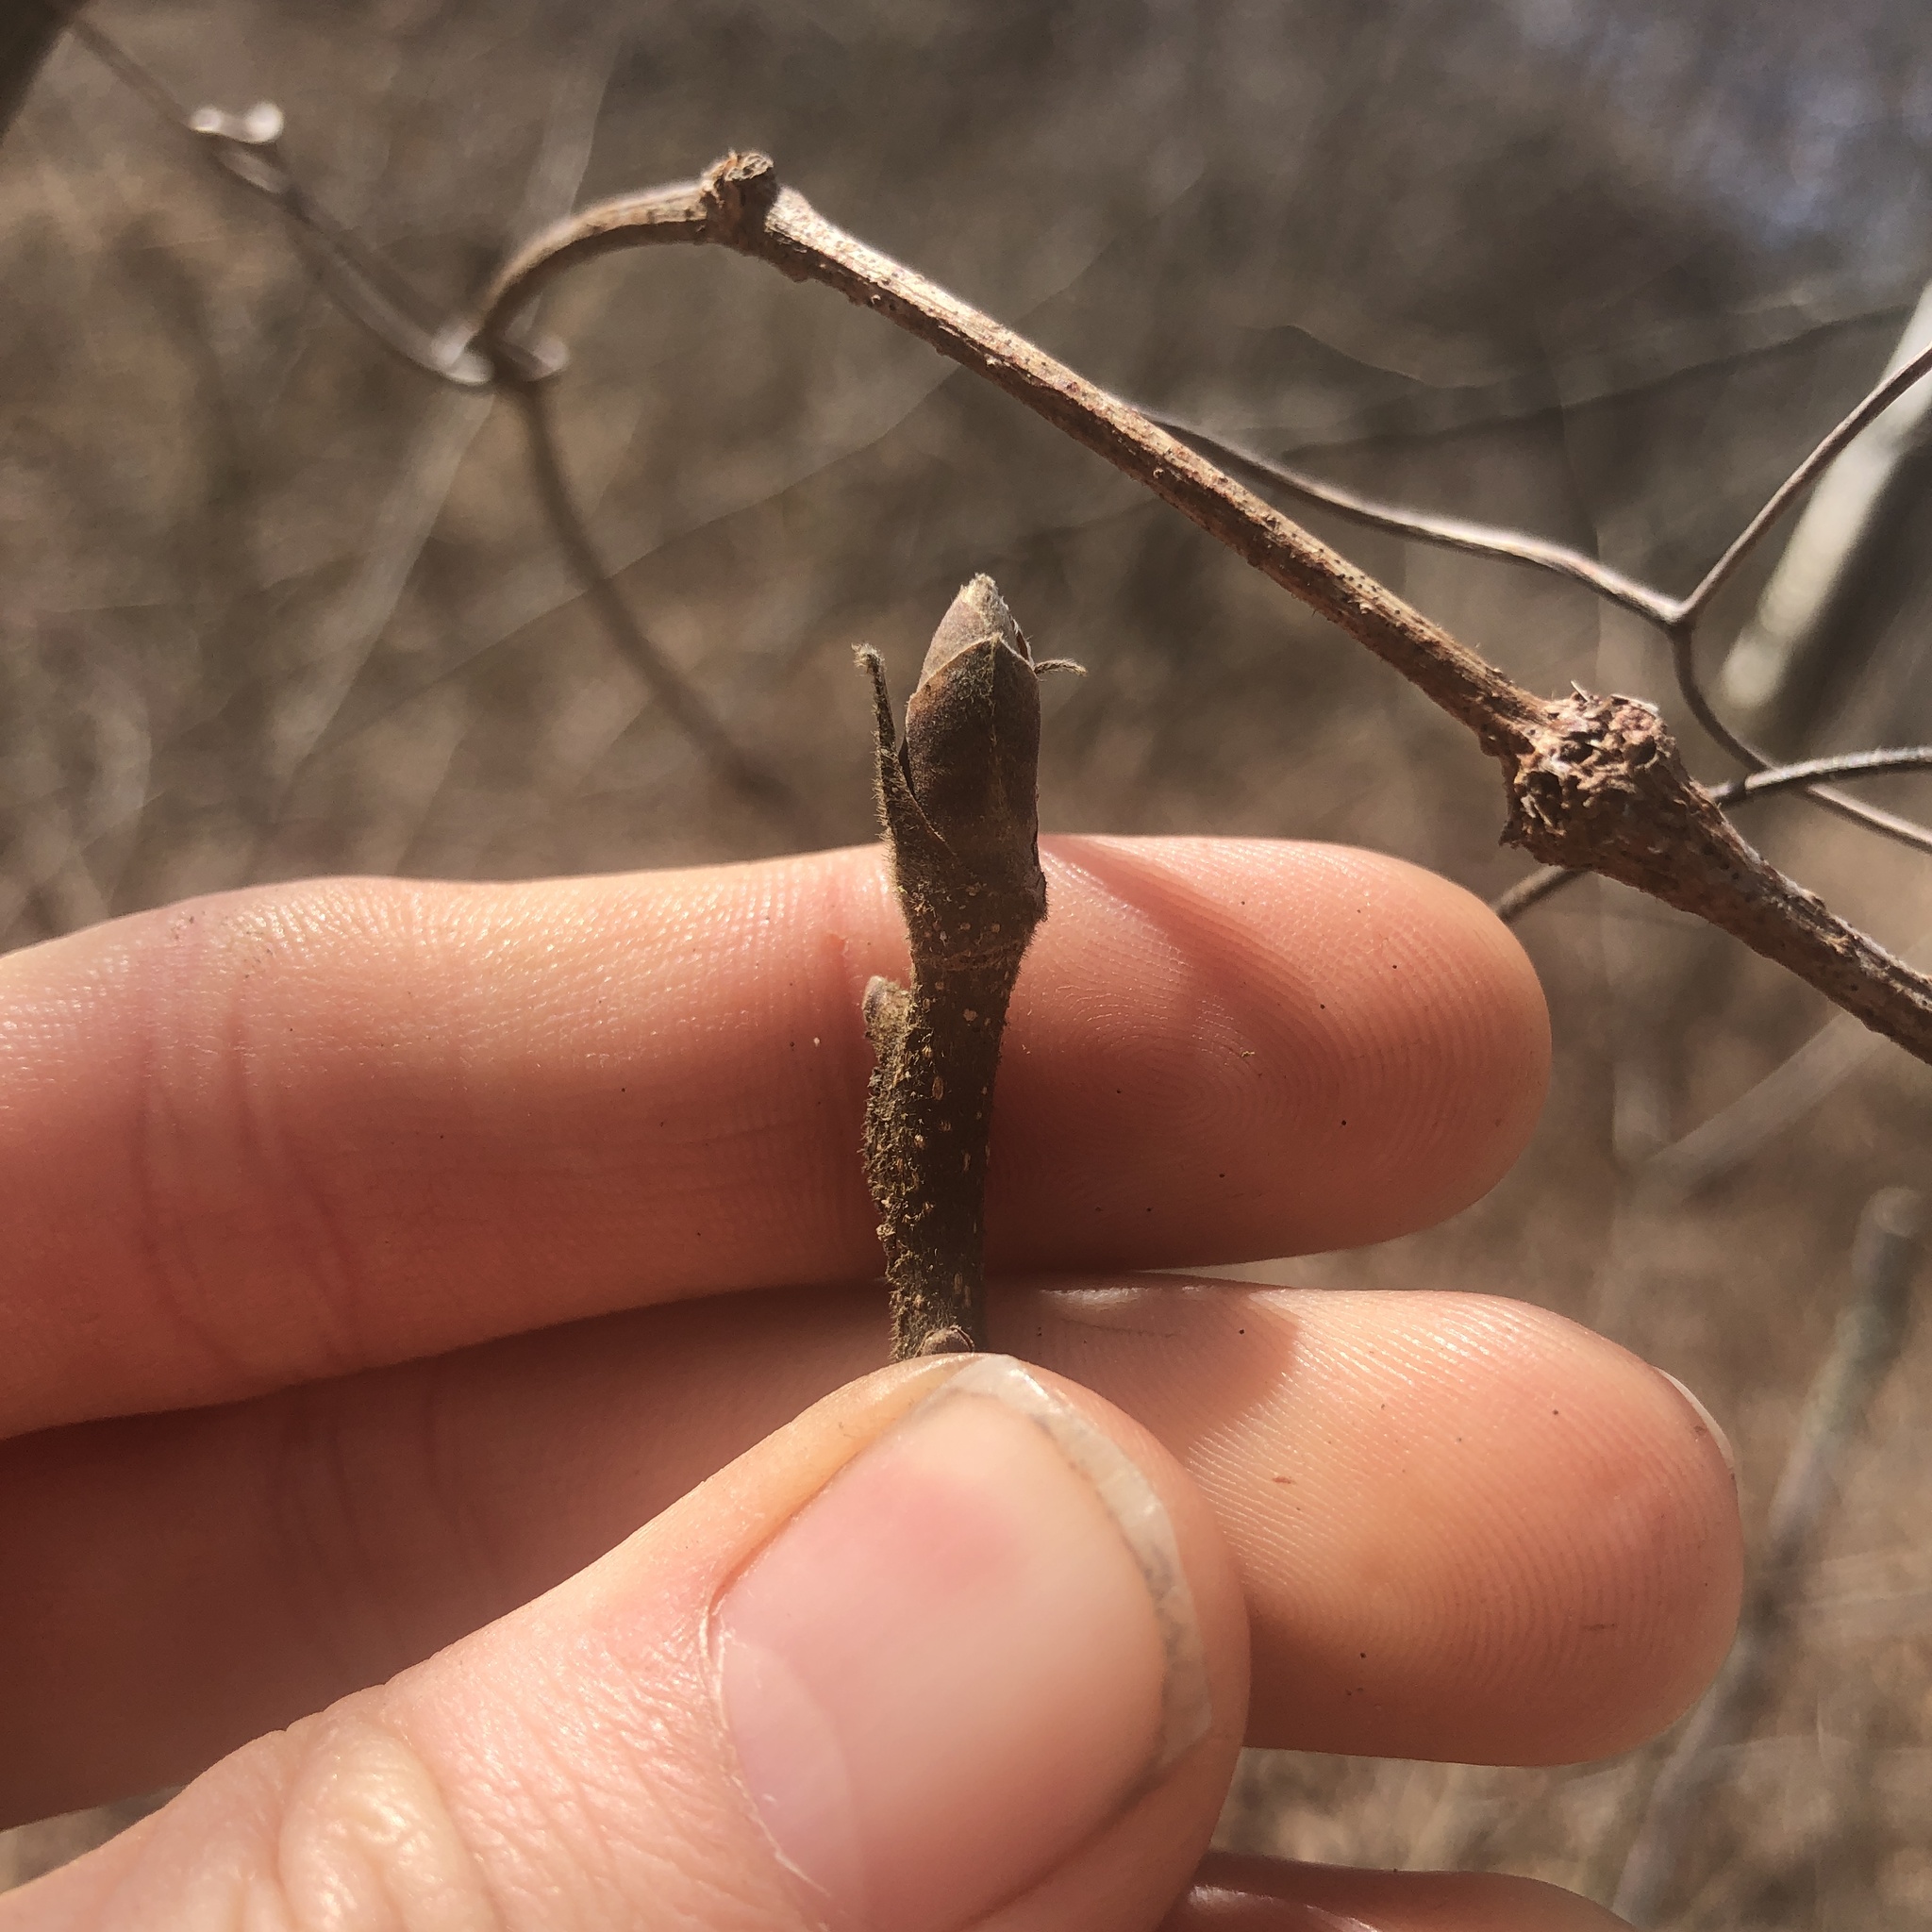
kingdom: Plantae
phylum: Tracheophyta
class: Magnoliopsida
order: Fagales
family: Juglandaceae
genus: Carya
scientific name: Carya ovata
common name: Shagbark hickory
